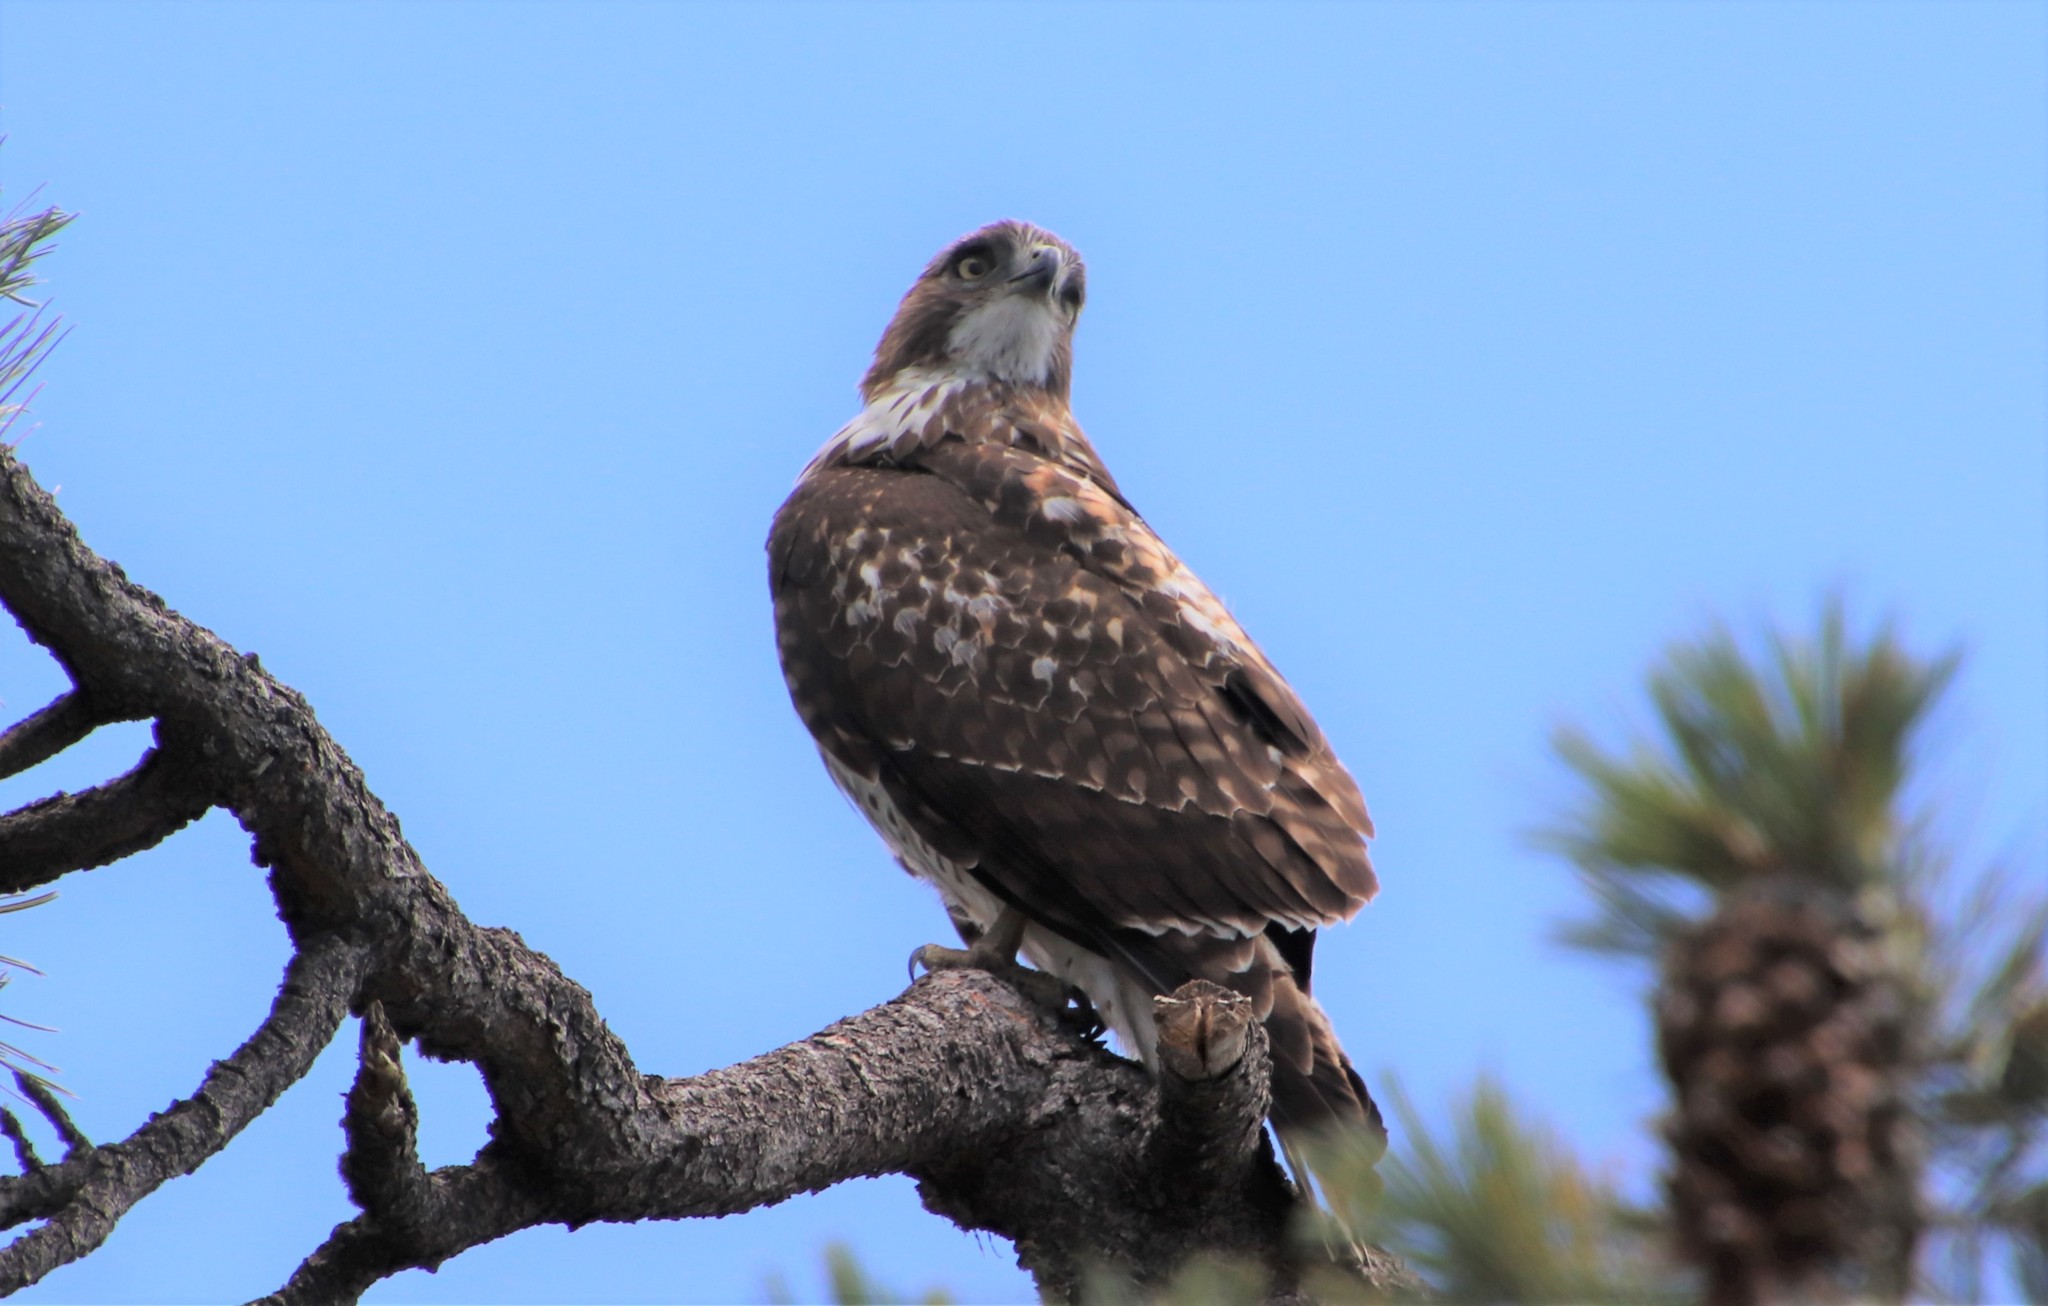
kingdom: Animalia
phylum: Chordata
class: Aves
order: Accipitriformes
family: Accipitridae
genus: Buteo
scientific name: Buteo jamaicensis
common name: Red-tailed hawk
